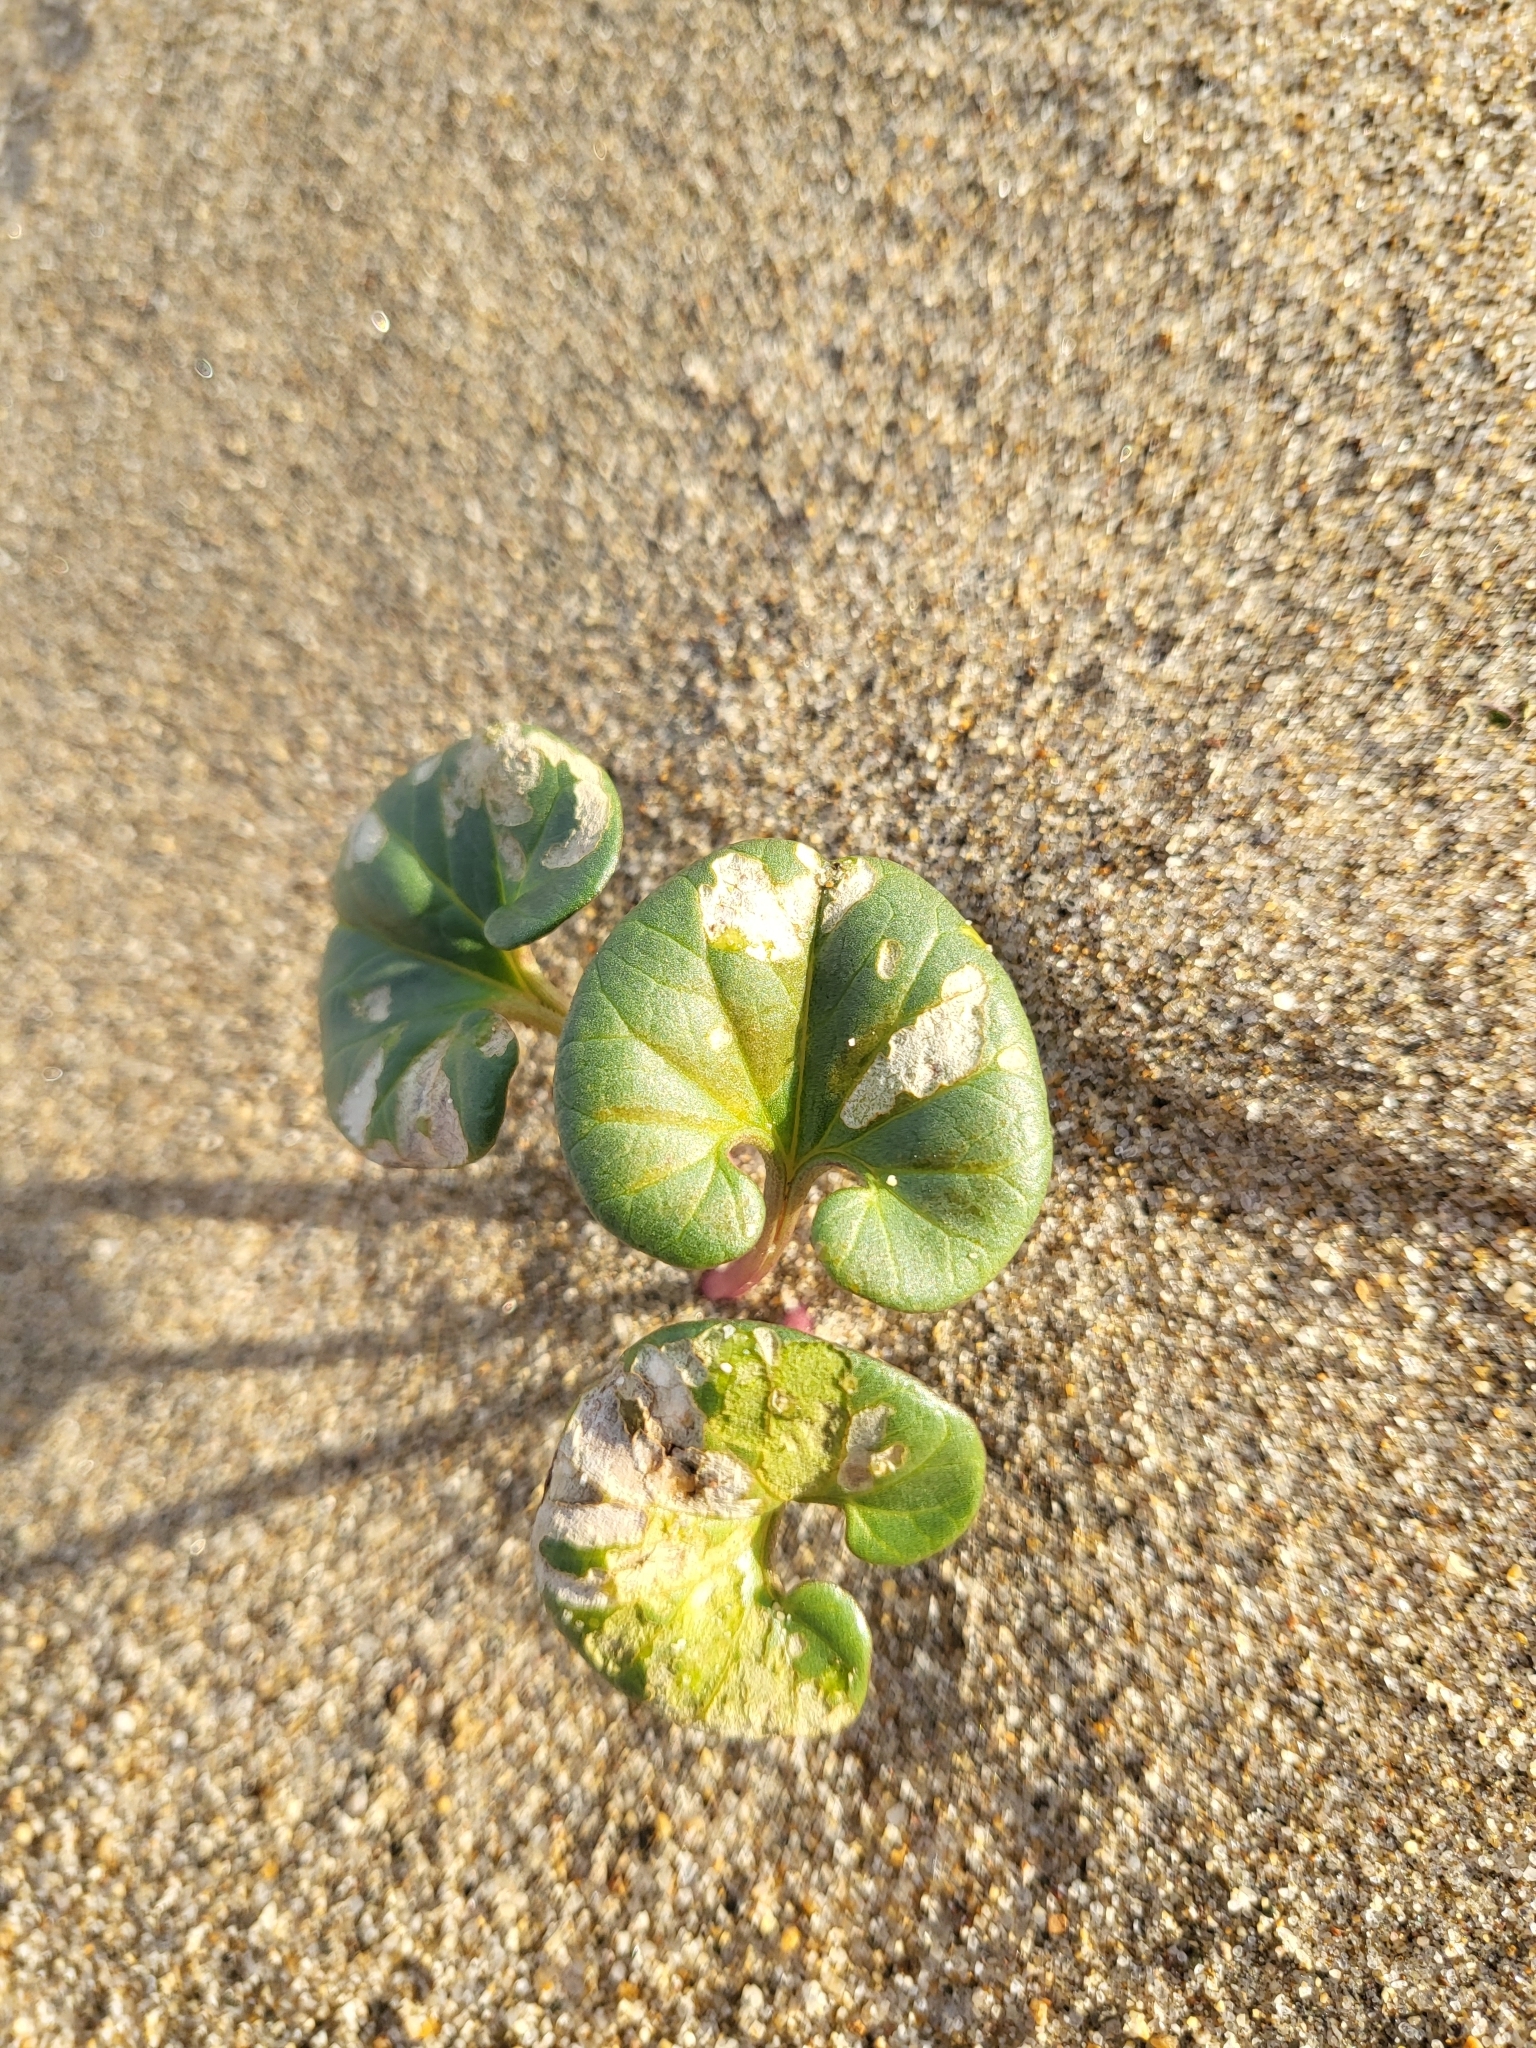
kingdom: Plantae
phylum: Tracheophyta
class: Magnoliopsida
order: Solanales
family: Convolvulaceae
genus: Calystegia
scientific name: Calystegia soldanella
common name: Sea bindweed
